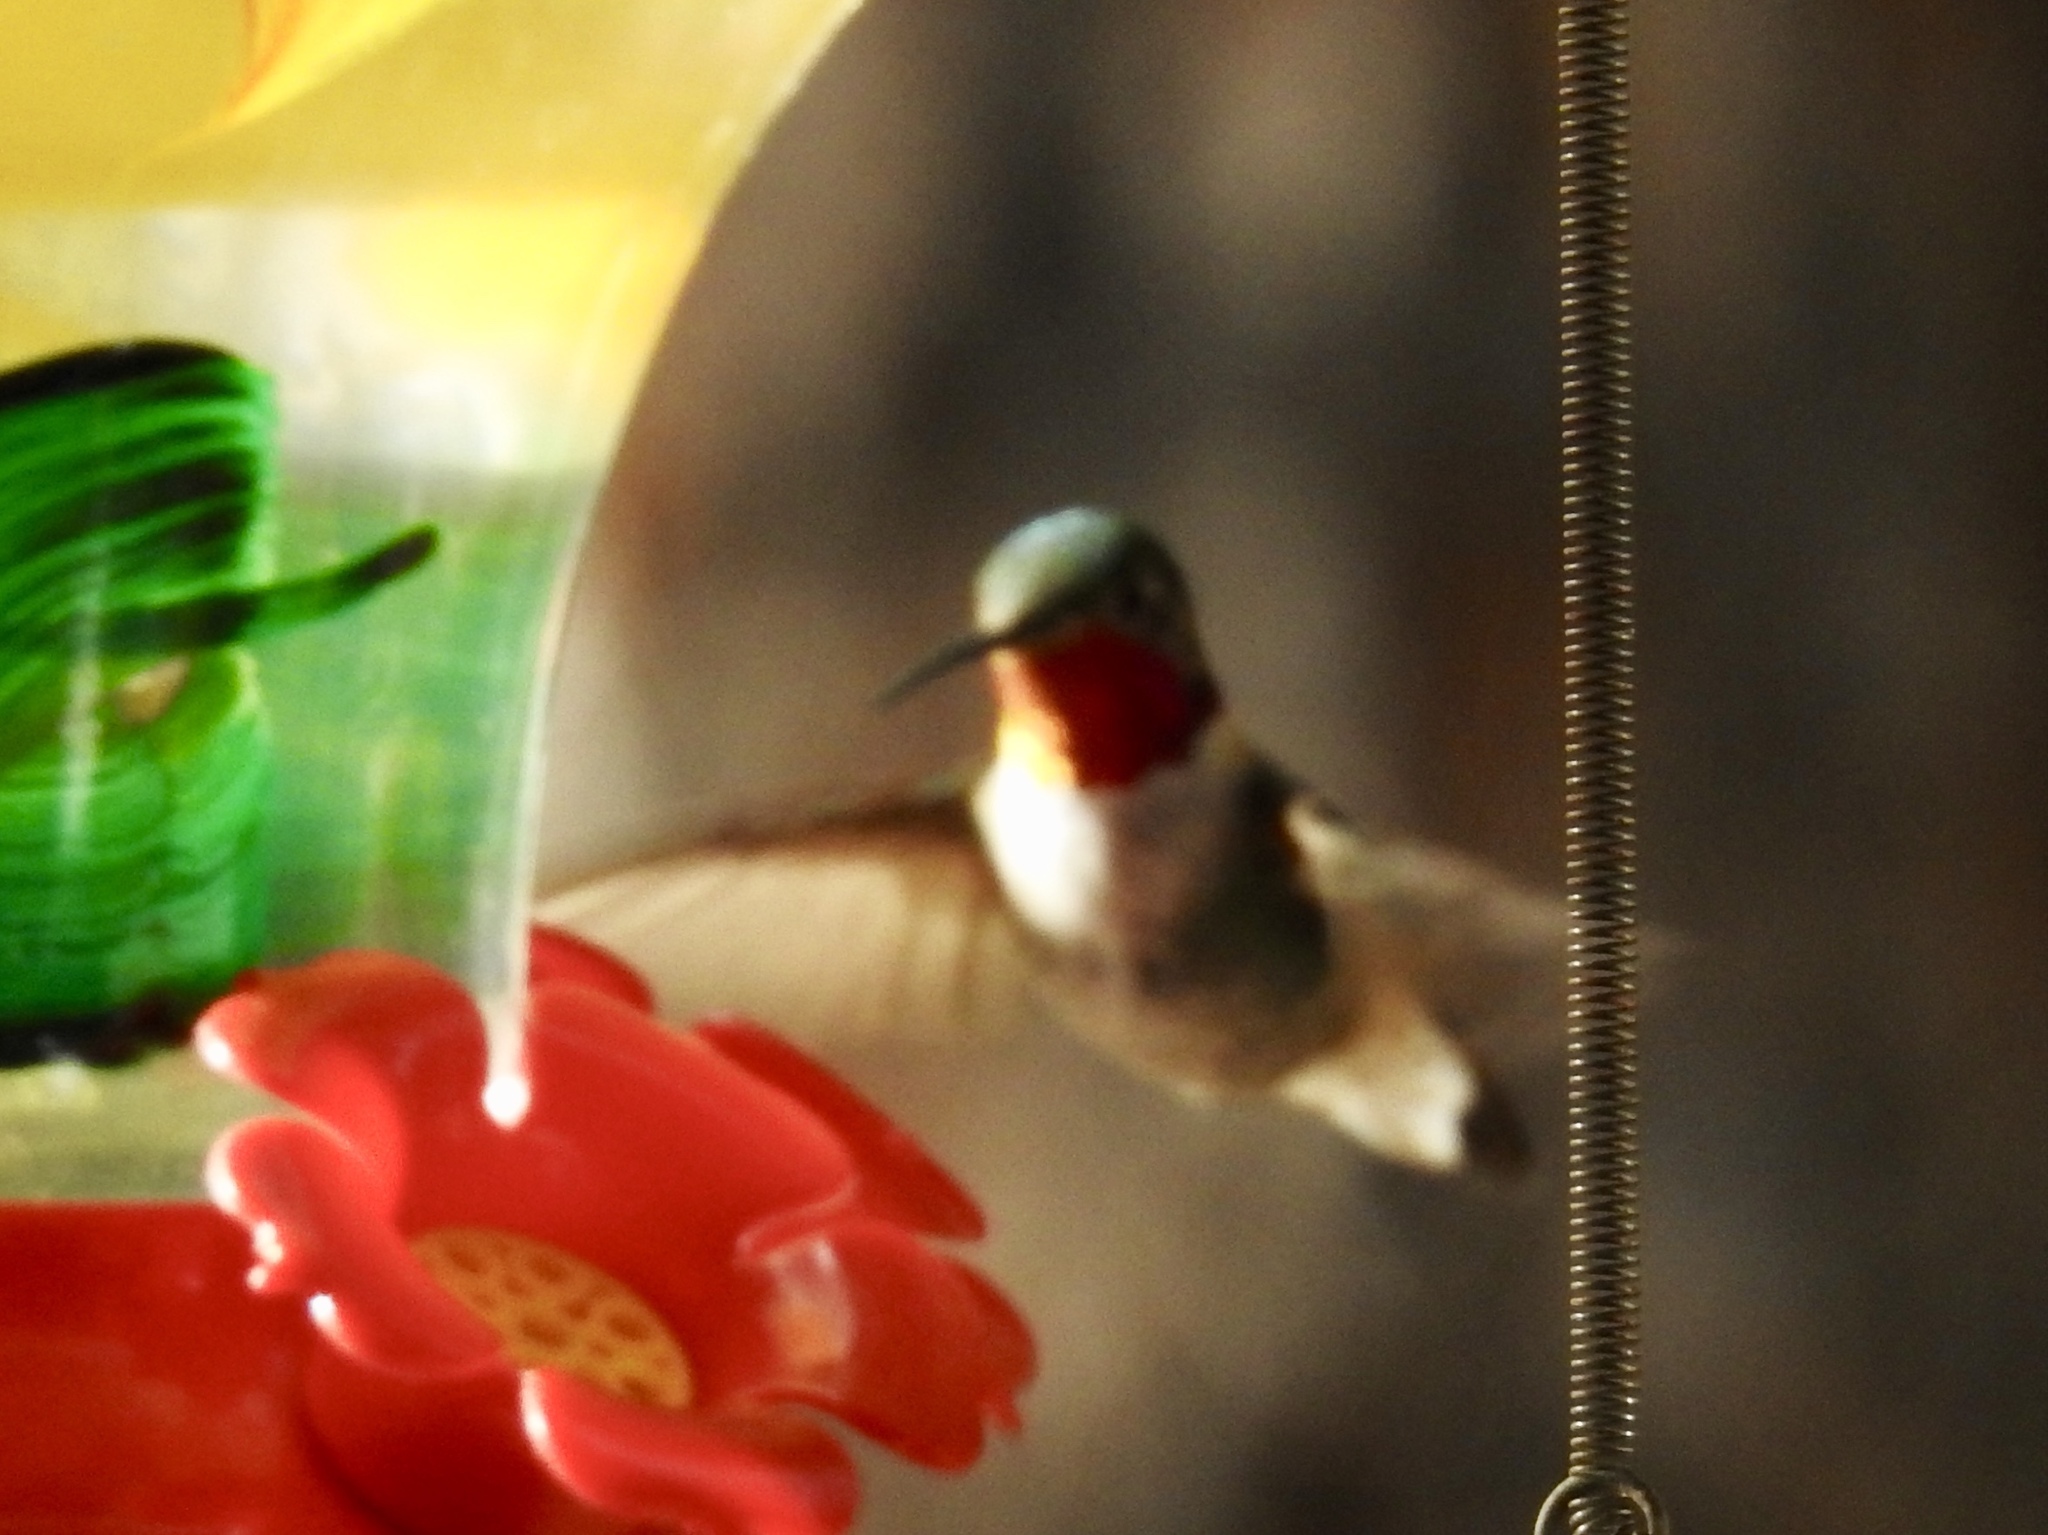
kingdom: Animalia
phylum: Chordata
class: Aves
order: Apodiformes
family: Trochilidae
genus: Selasphorus
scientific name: Selasphorus platycercus
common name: Broad-tailed hummingbird
